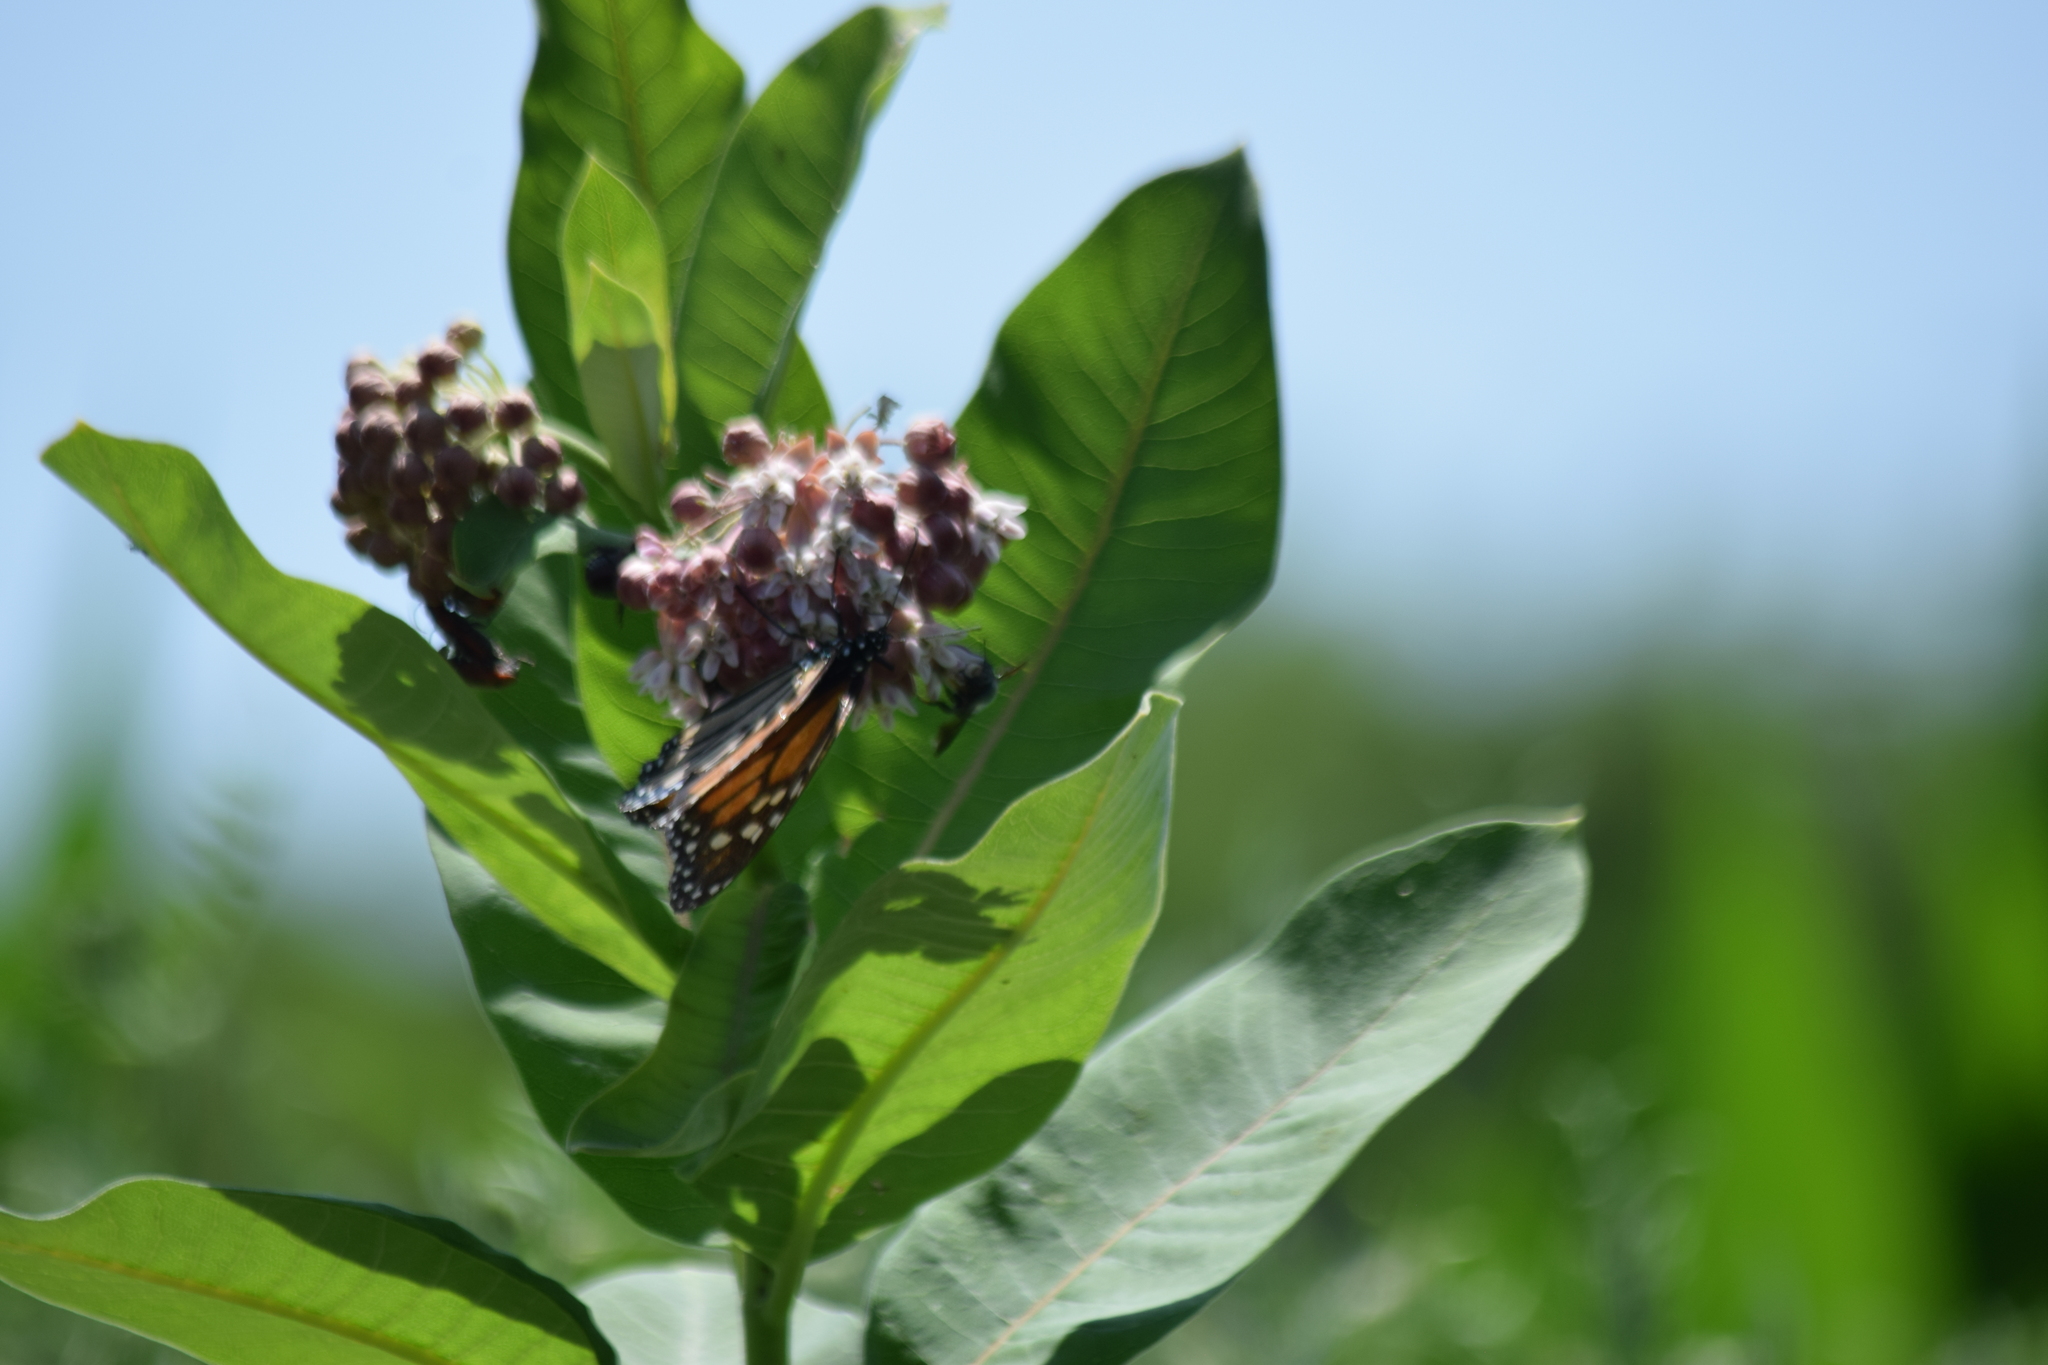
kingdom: Animalia
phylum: Arthropoda
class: Insecta
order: Lepidoptera
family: Nymphalidae
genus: Danaus
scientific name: Danaus plexippus
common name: Monarch
